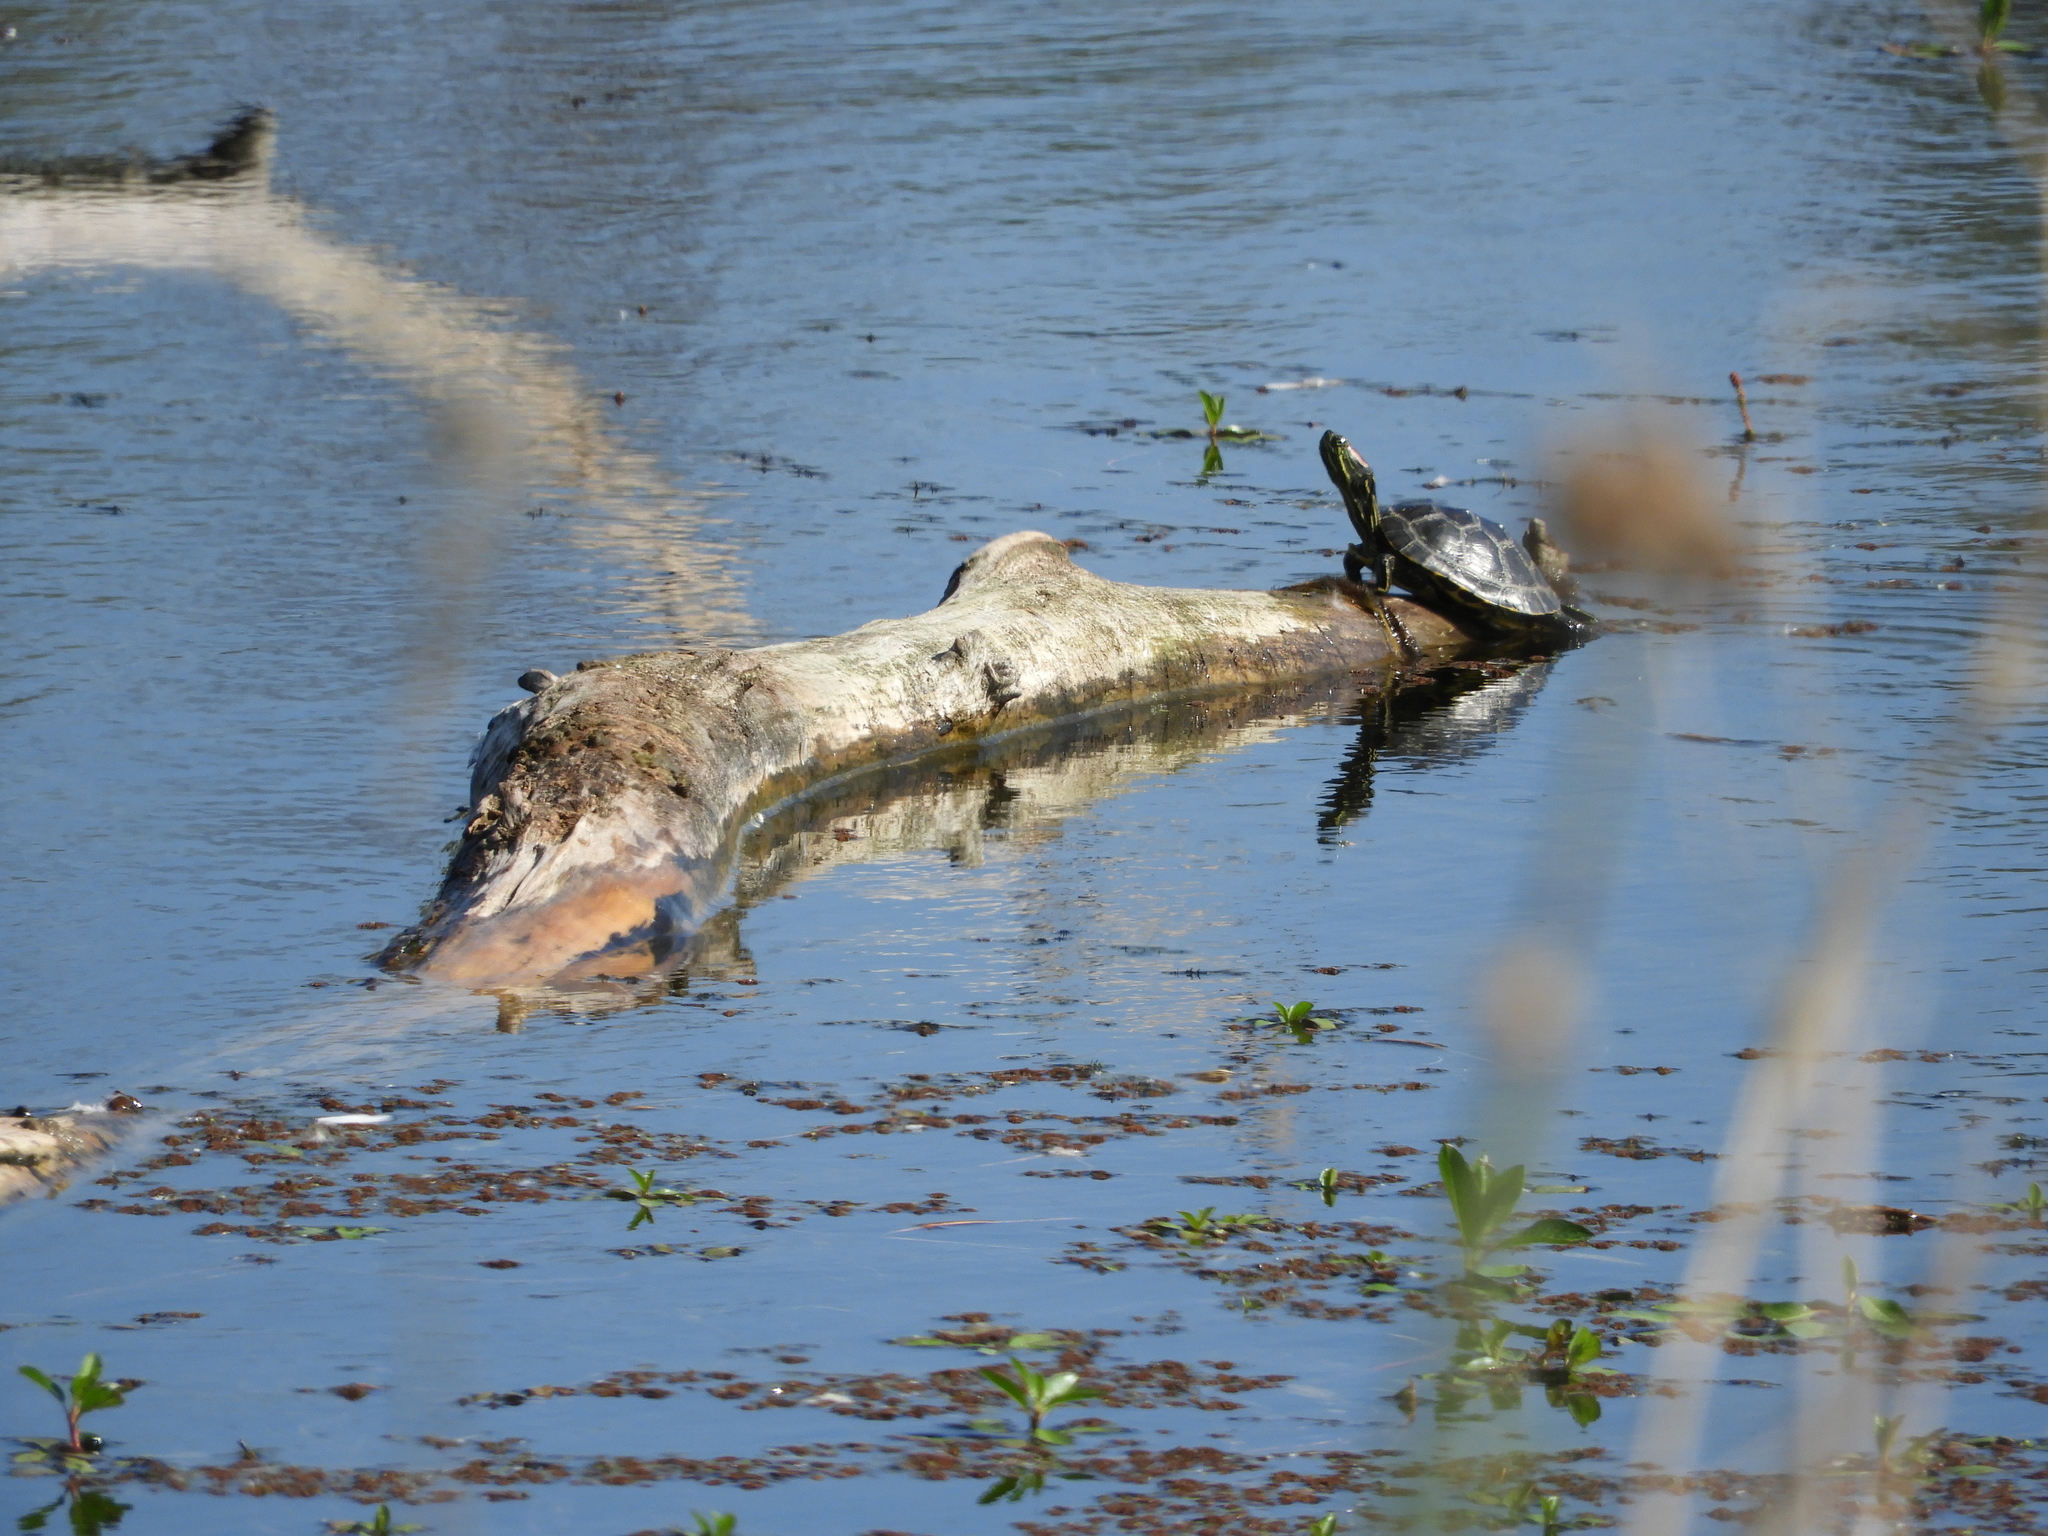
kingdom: Animalia
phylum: Chordata
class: Testudines
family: Emydidae
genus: Trachemys
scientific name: Trachemys scripta
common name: Slider
